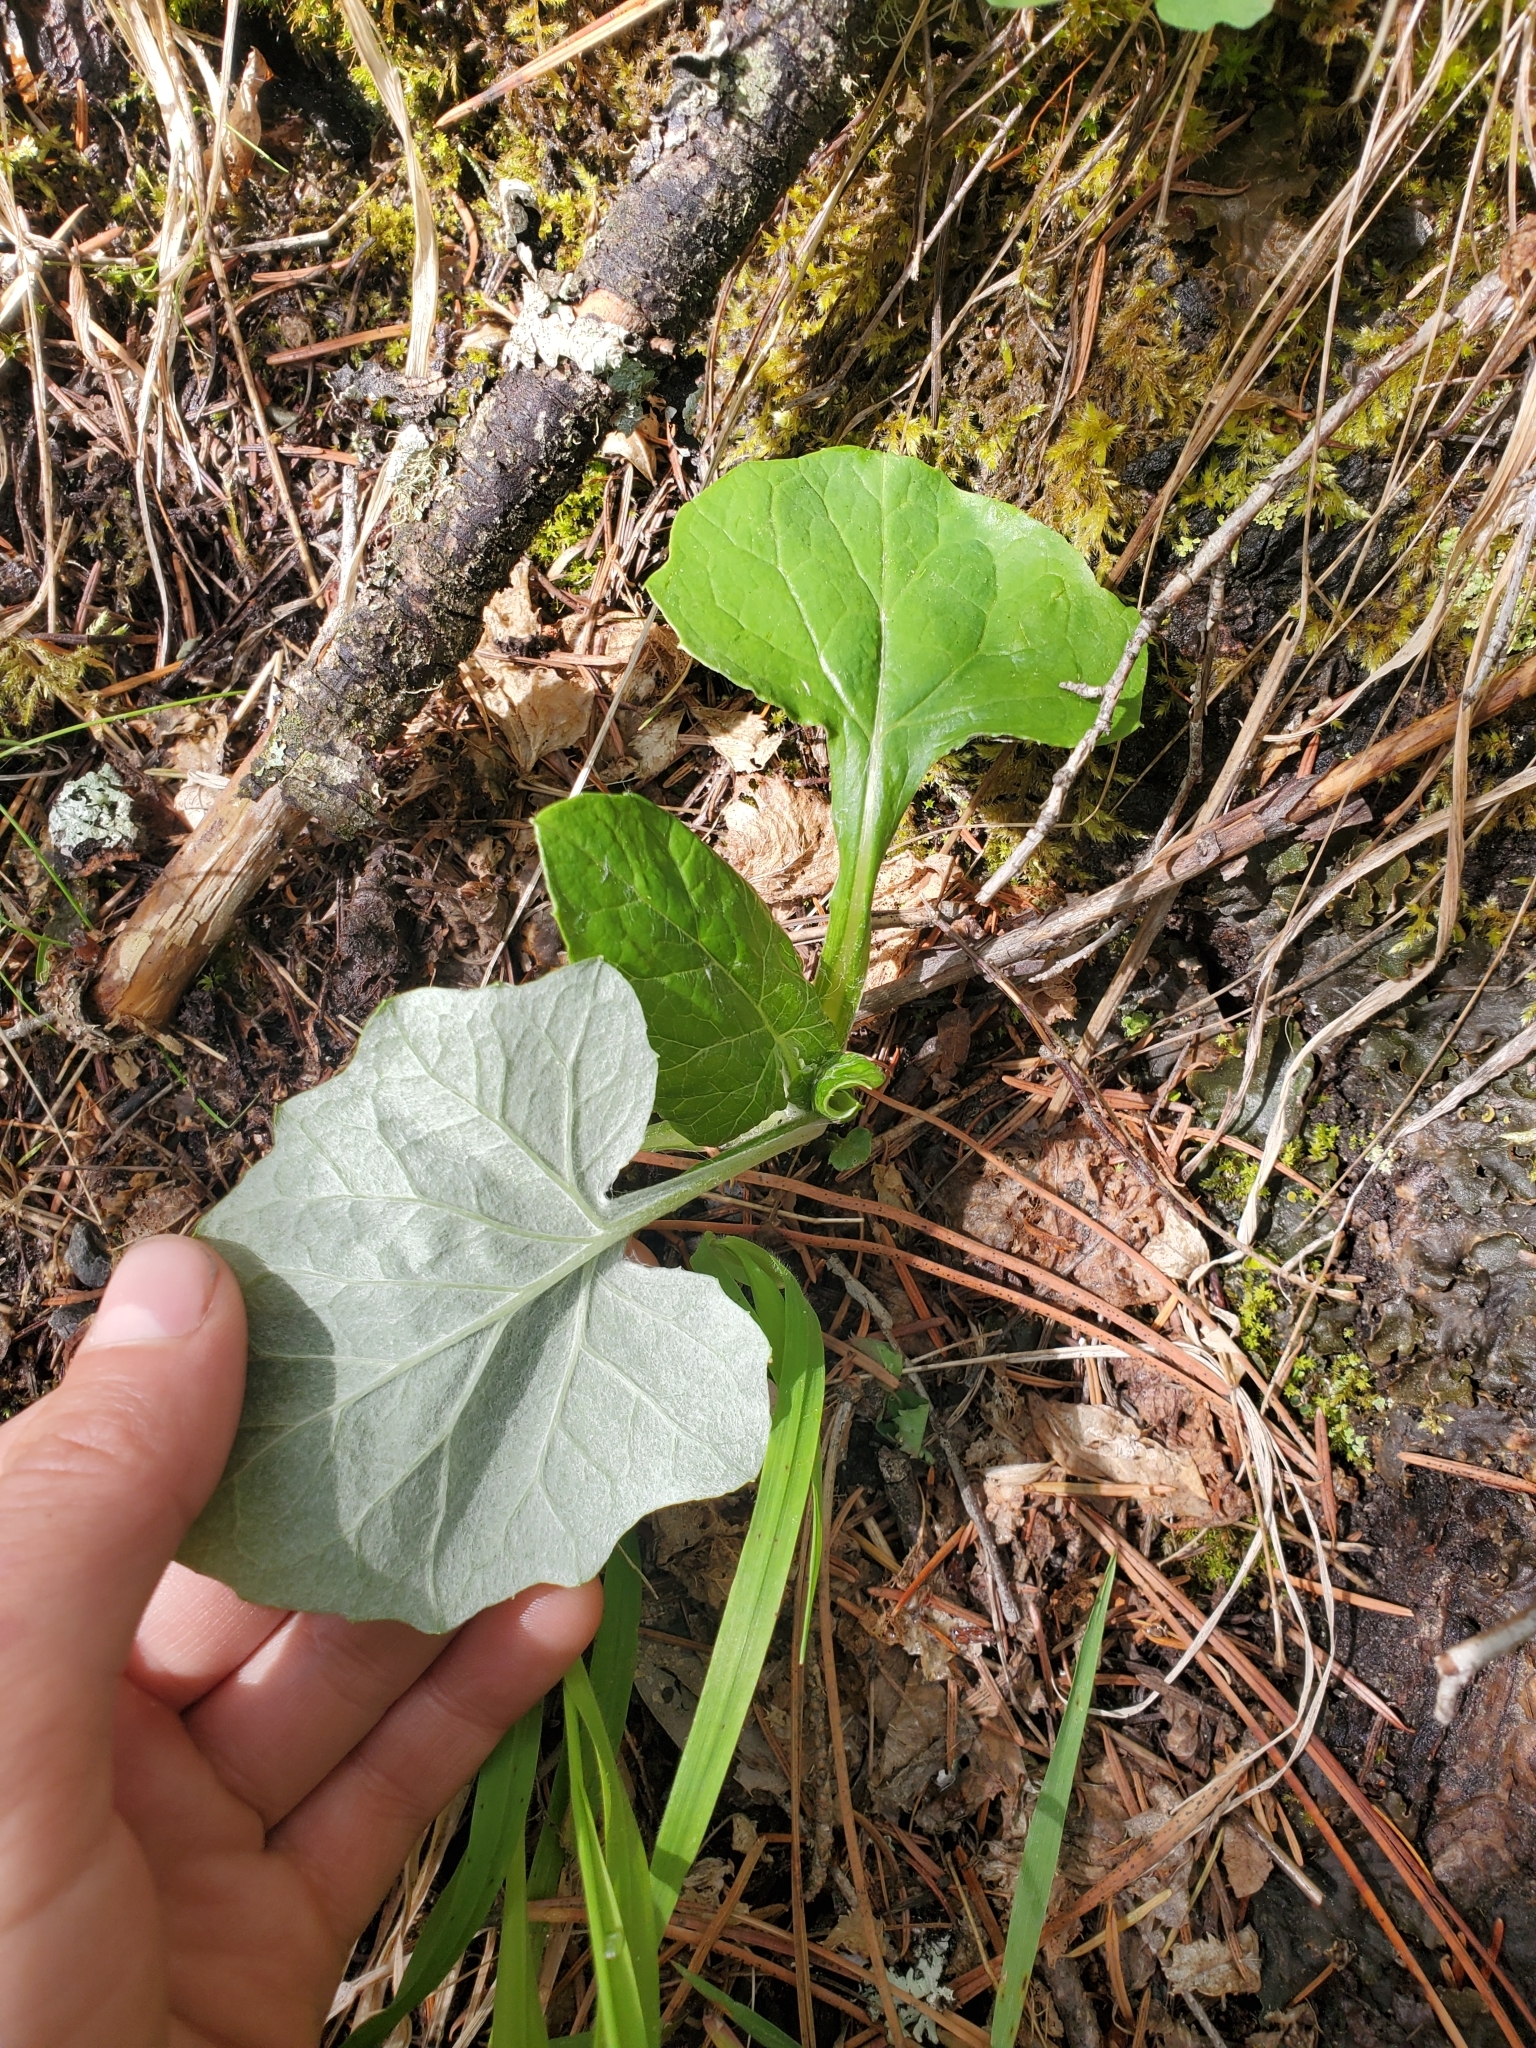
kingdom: Plantae
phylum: Tracheophyta
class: Magnoliopsida
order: Asterales
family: Asteraceae
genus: Adenocaulon
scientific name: Adenocaulon bicolor
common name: Trailplant
